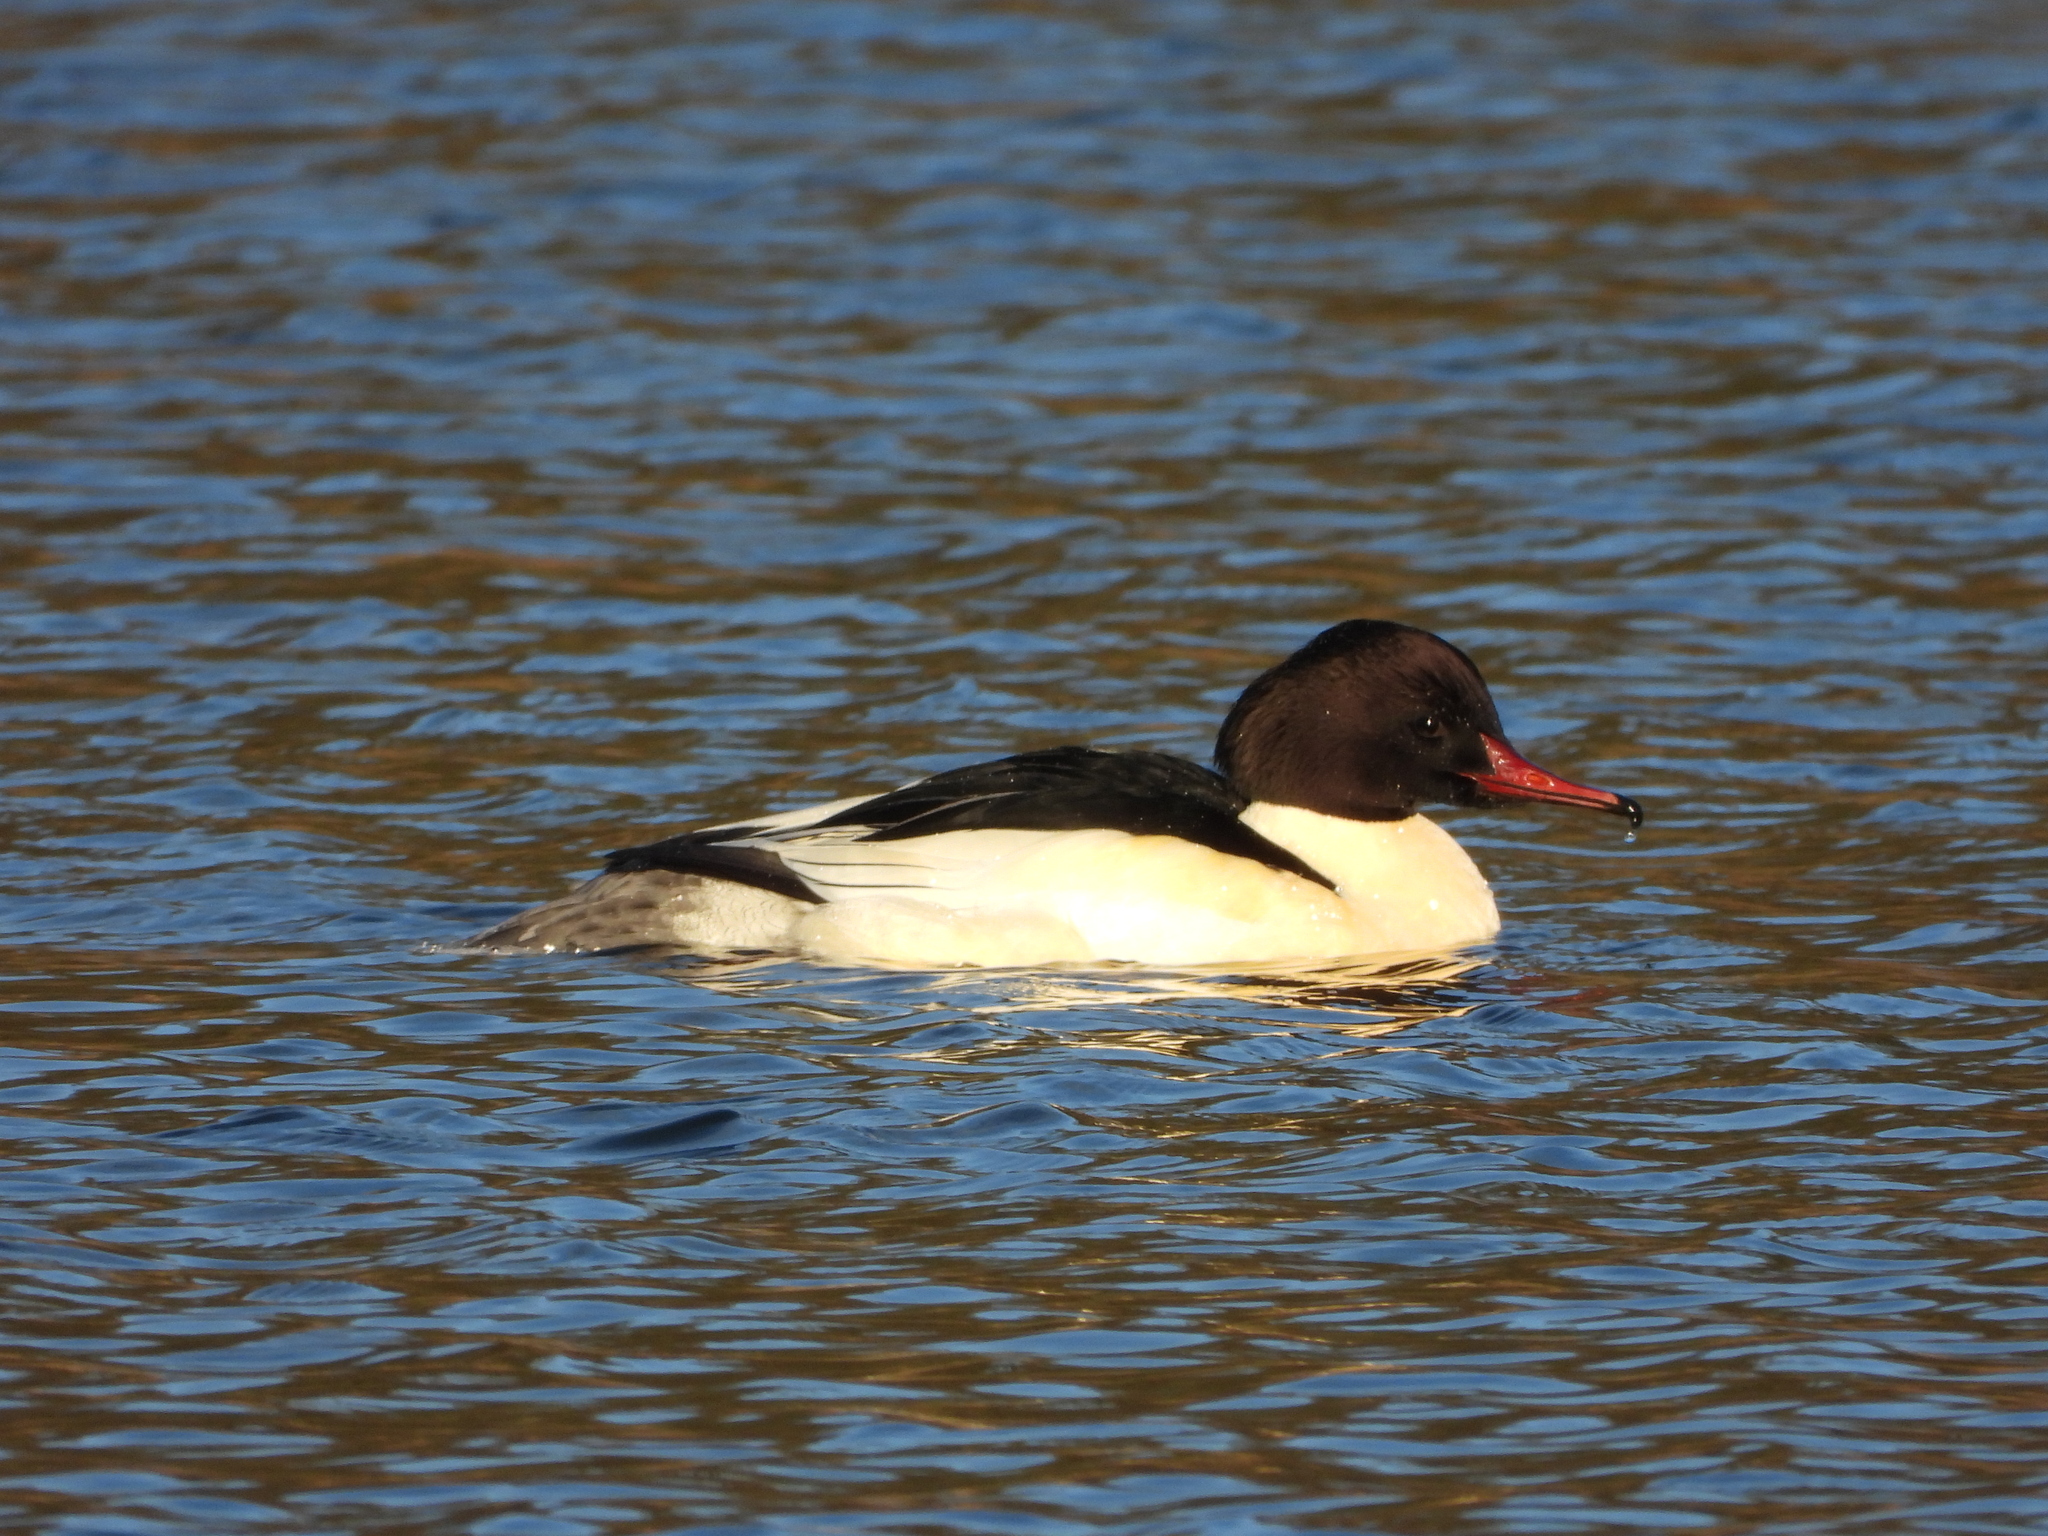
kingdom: Animalia
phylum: Chordata
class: Aves
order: Anseriformes
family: Anatidae
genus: Mergus
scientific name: Mergus merganser
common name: Common merganser
